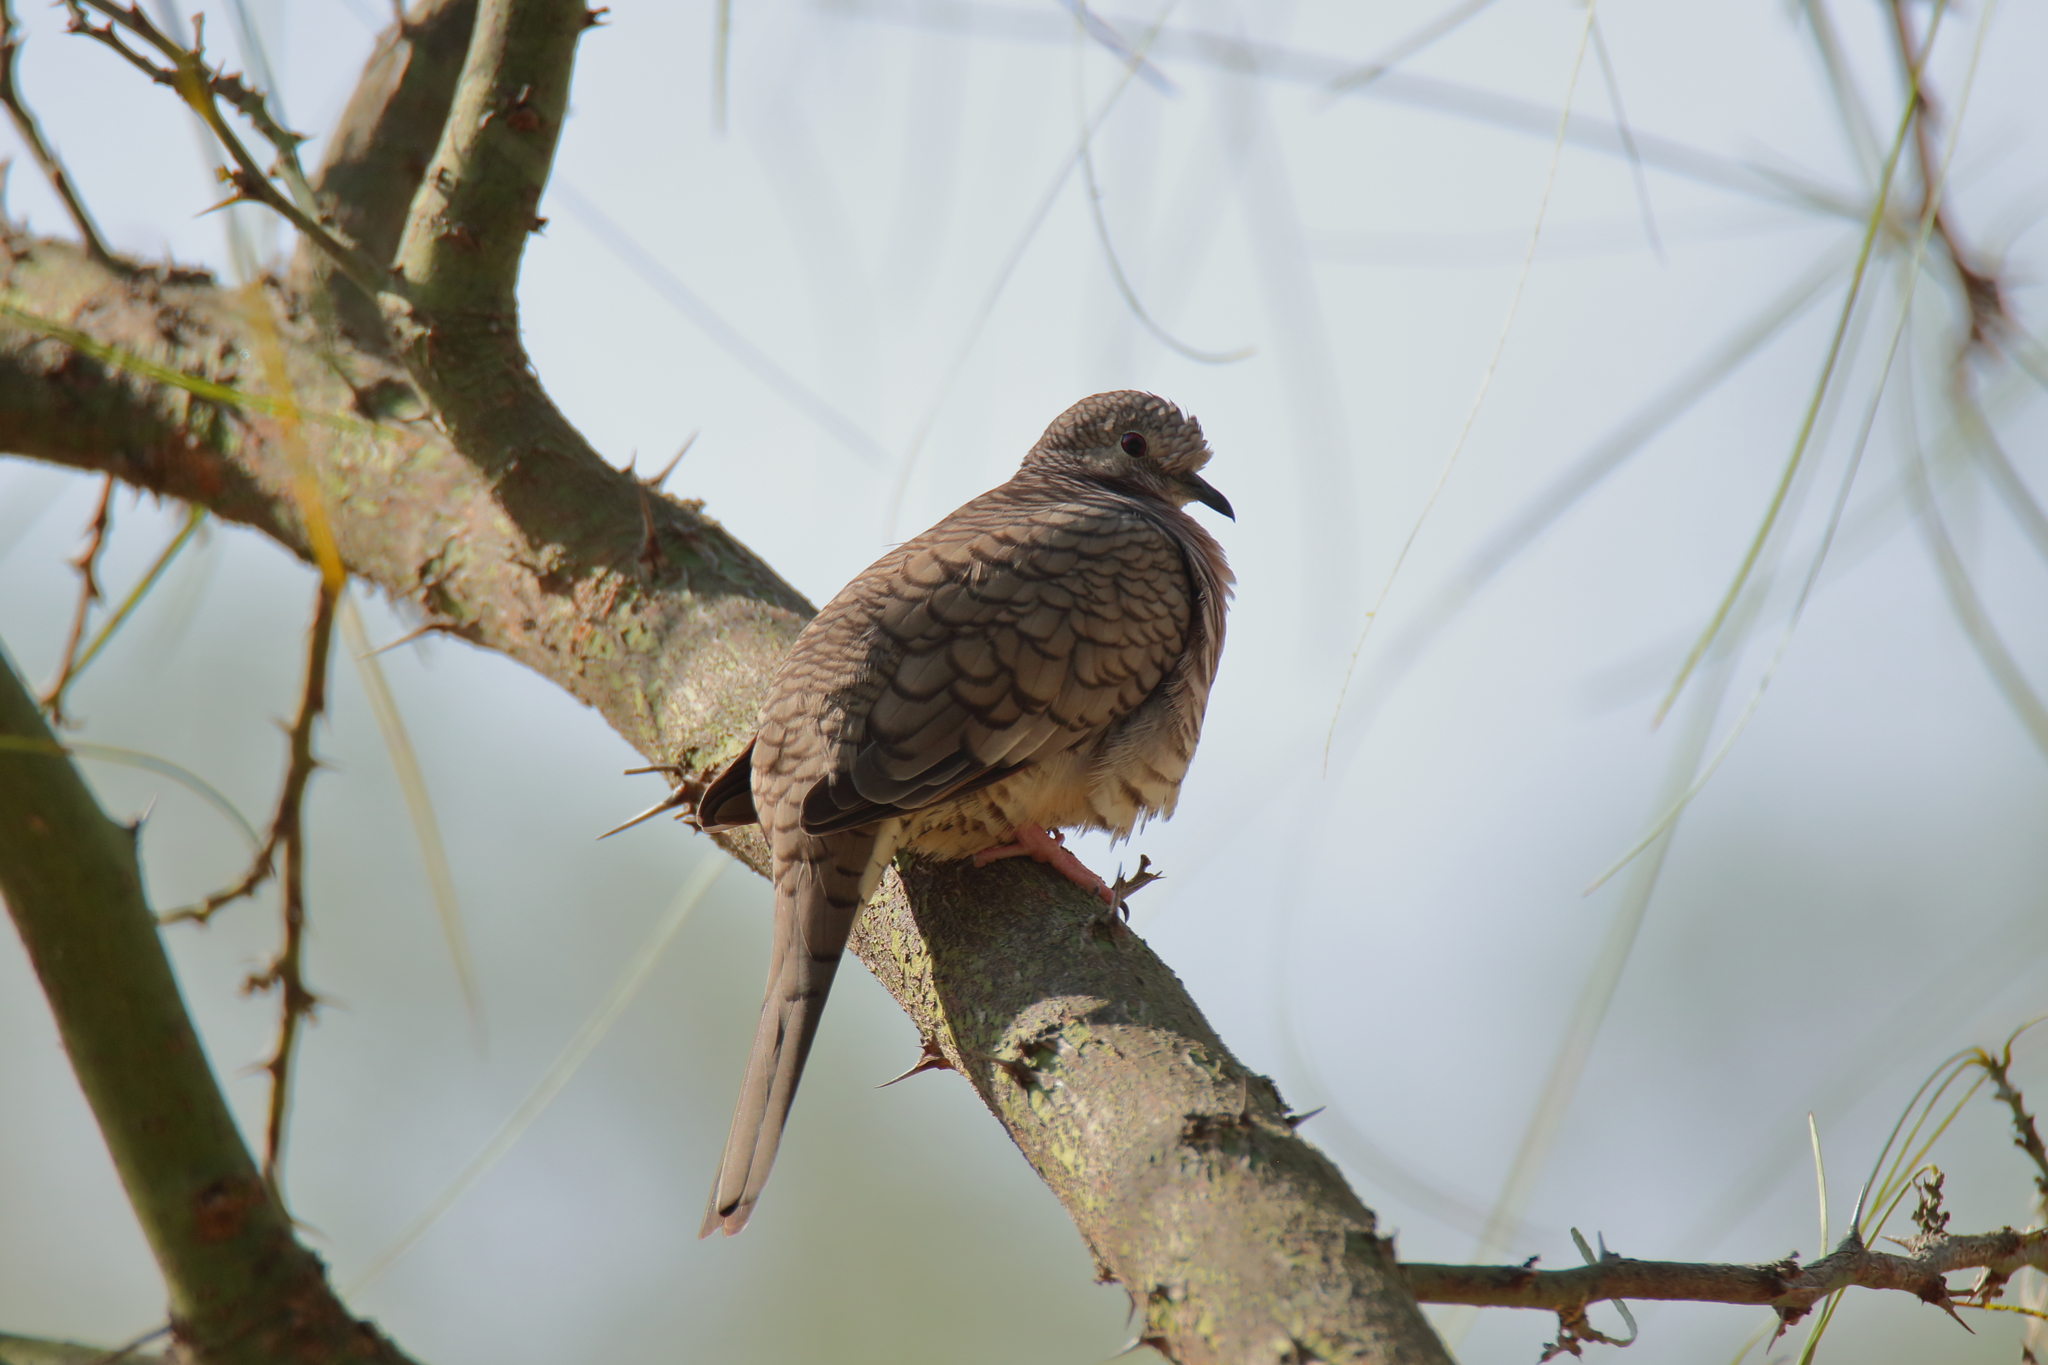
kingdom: Animalia
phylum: Chordata
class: Aves
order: Columbiformes
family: Columbidae
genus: Columbina
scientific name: Columbina inca
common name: Inca dove
